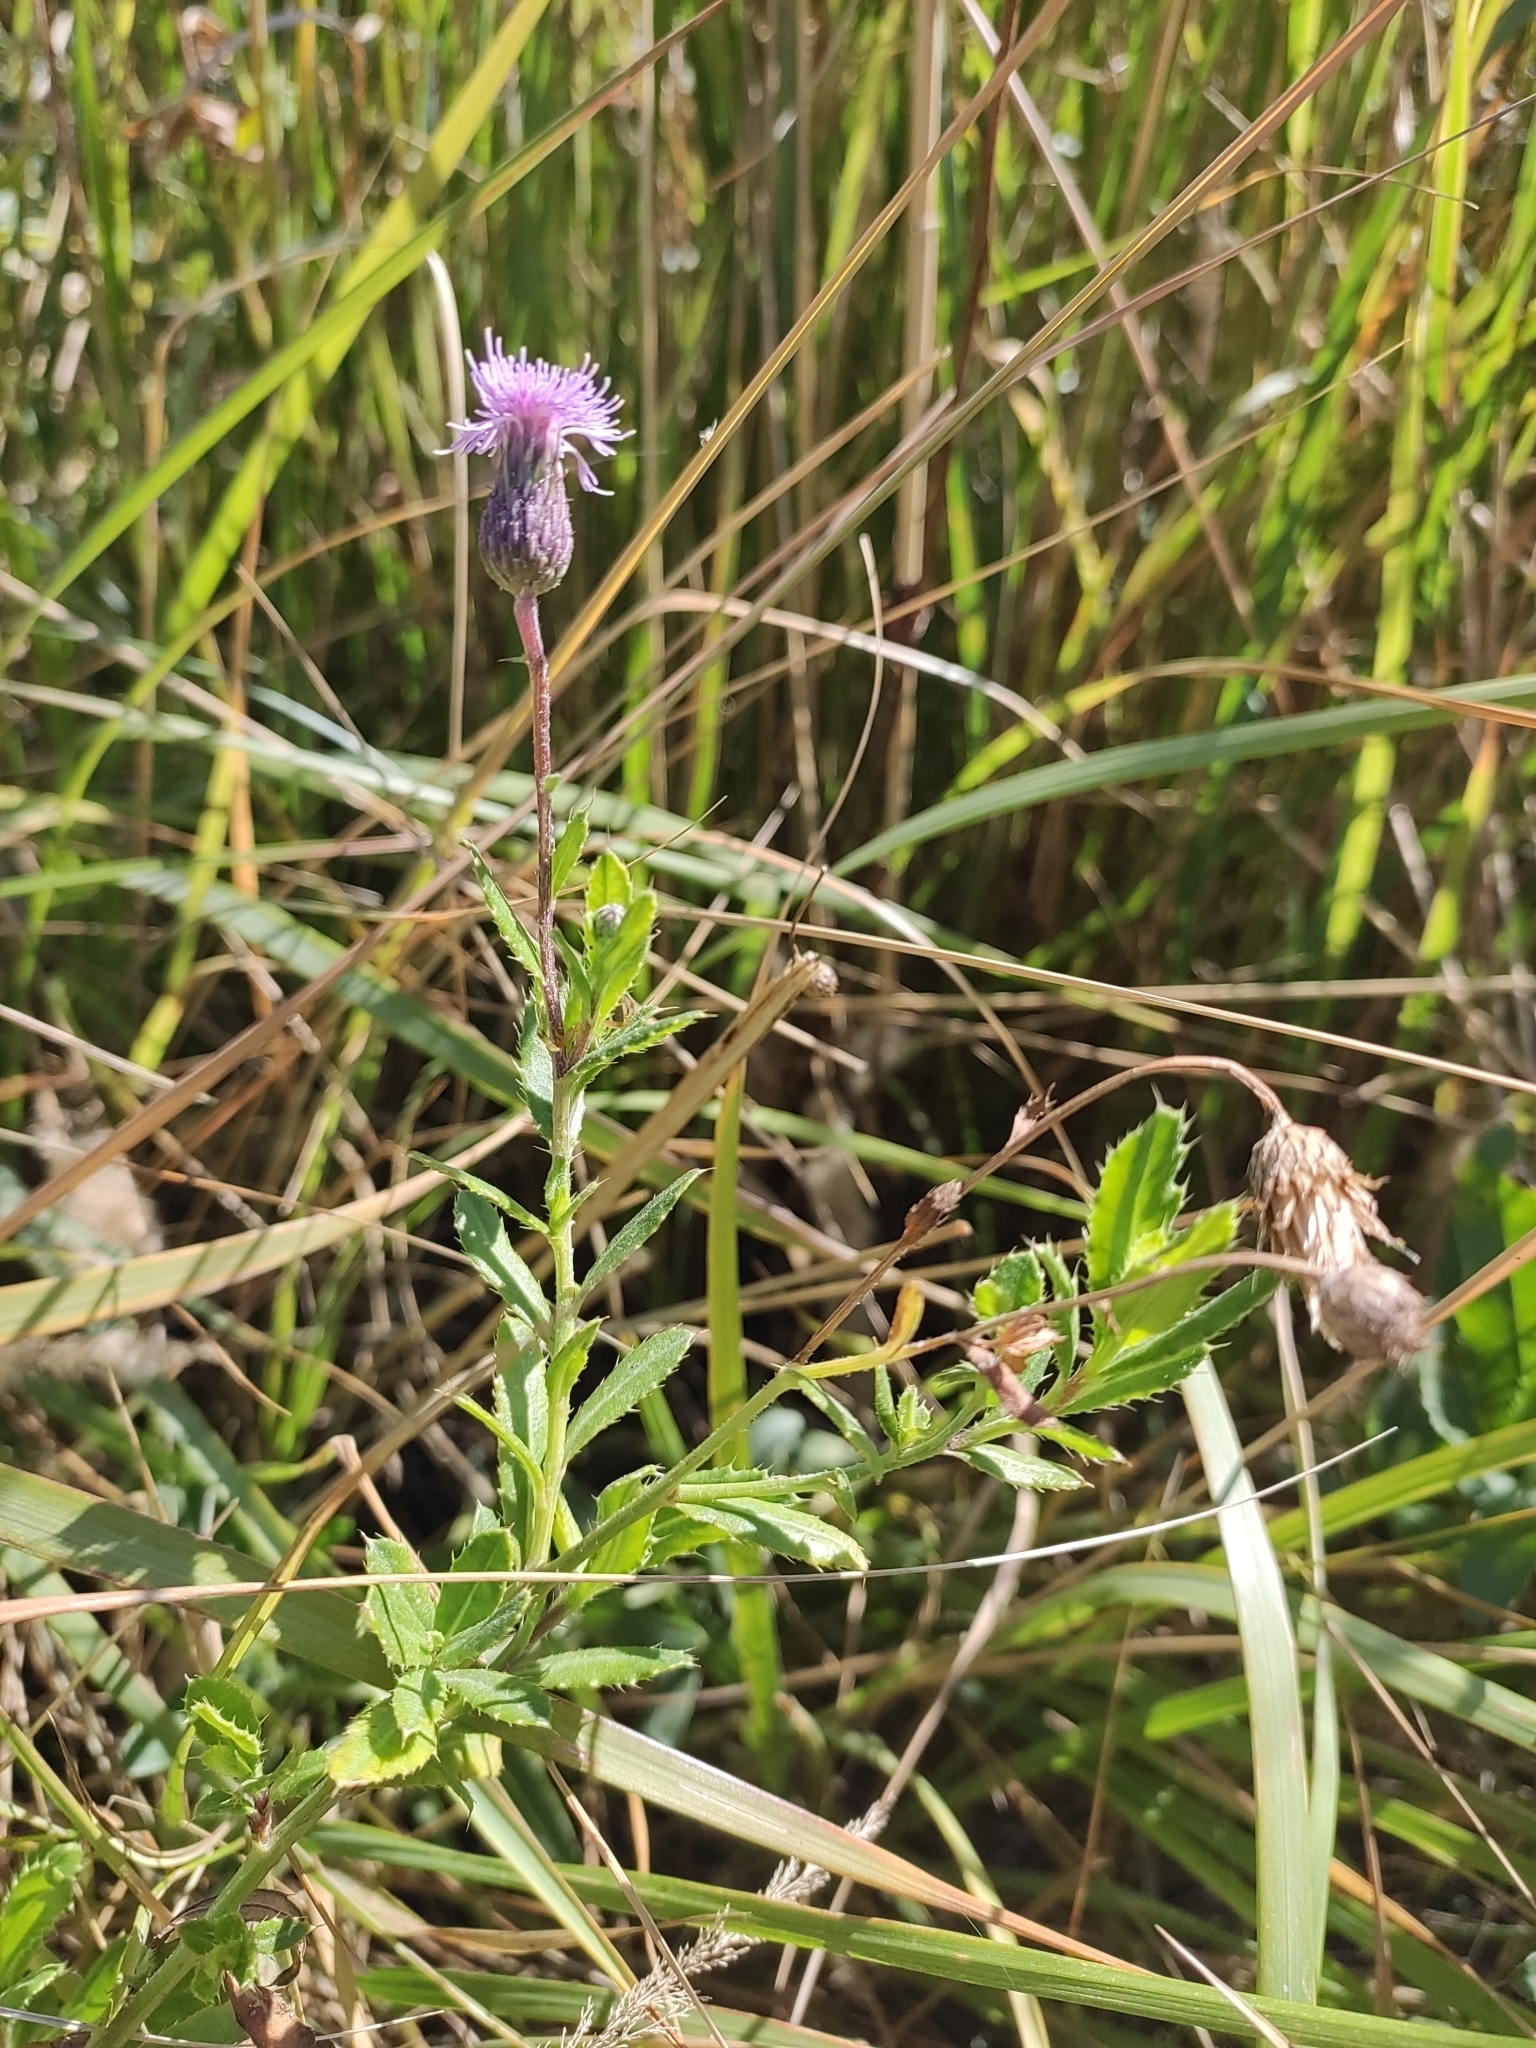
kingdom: Plantae
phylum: Tracheophyta
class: Magnoliopsida
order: Asterales
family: Asteraceae
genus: Cirsium
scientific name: Cirsium arvense
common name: Creeping thistle
